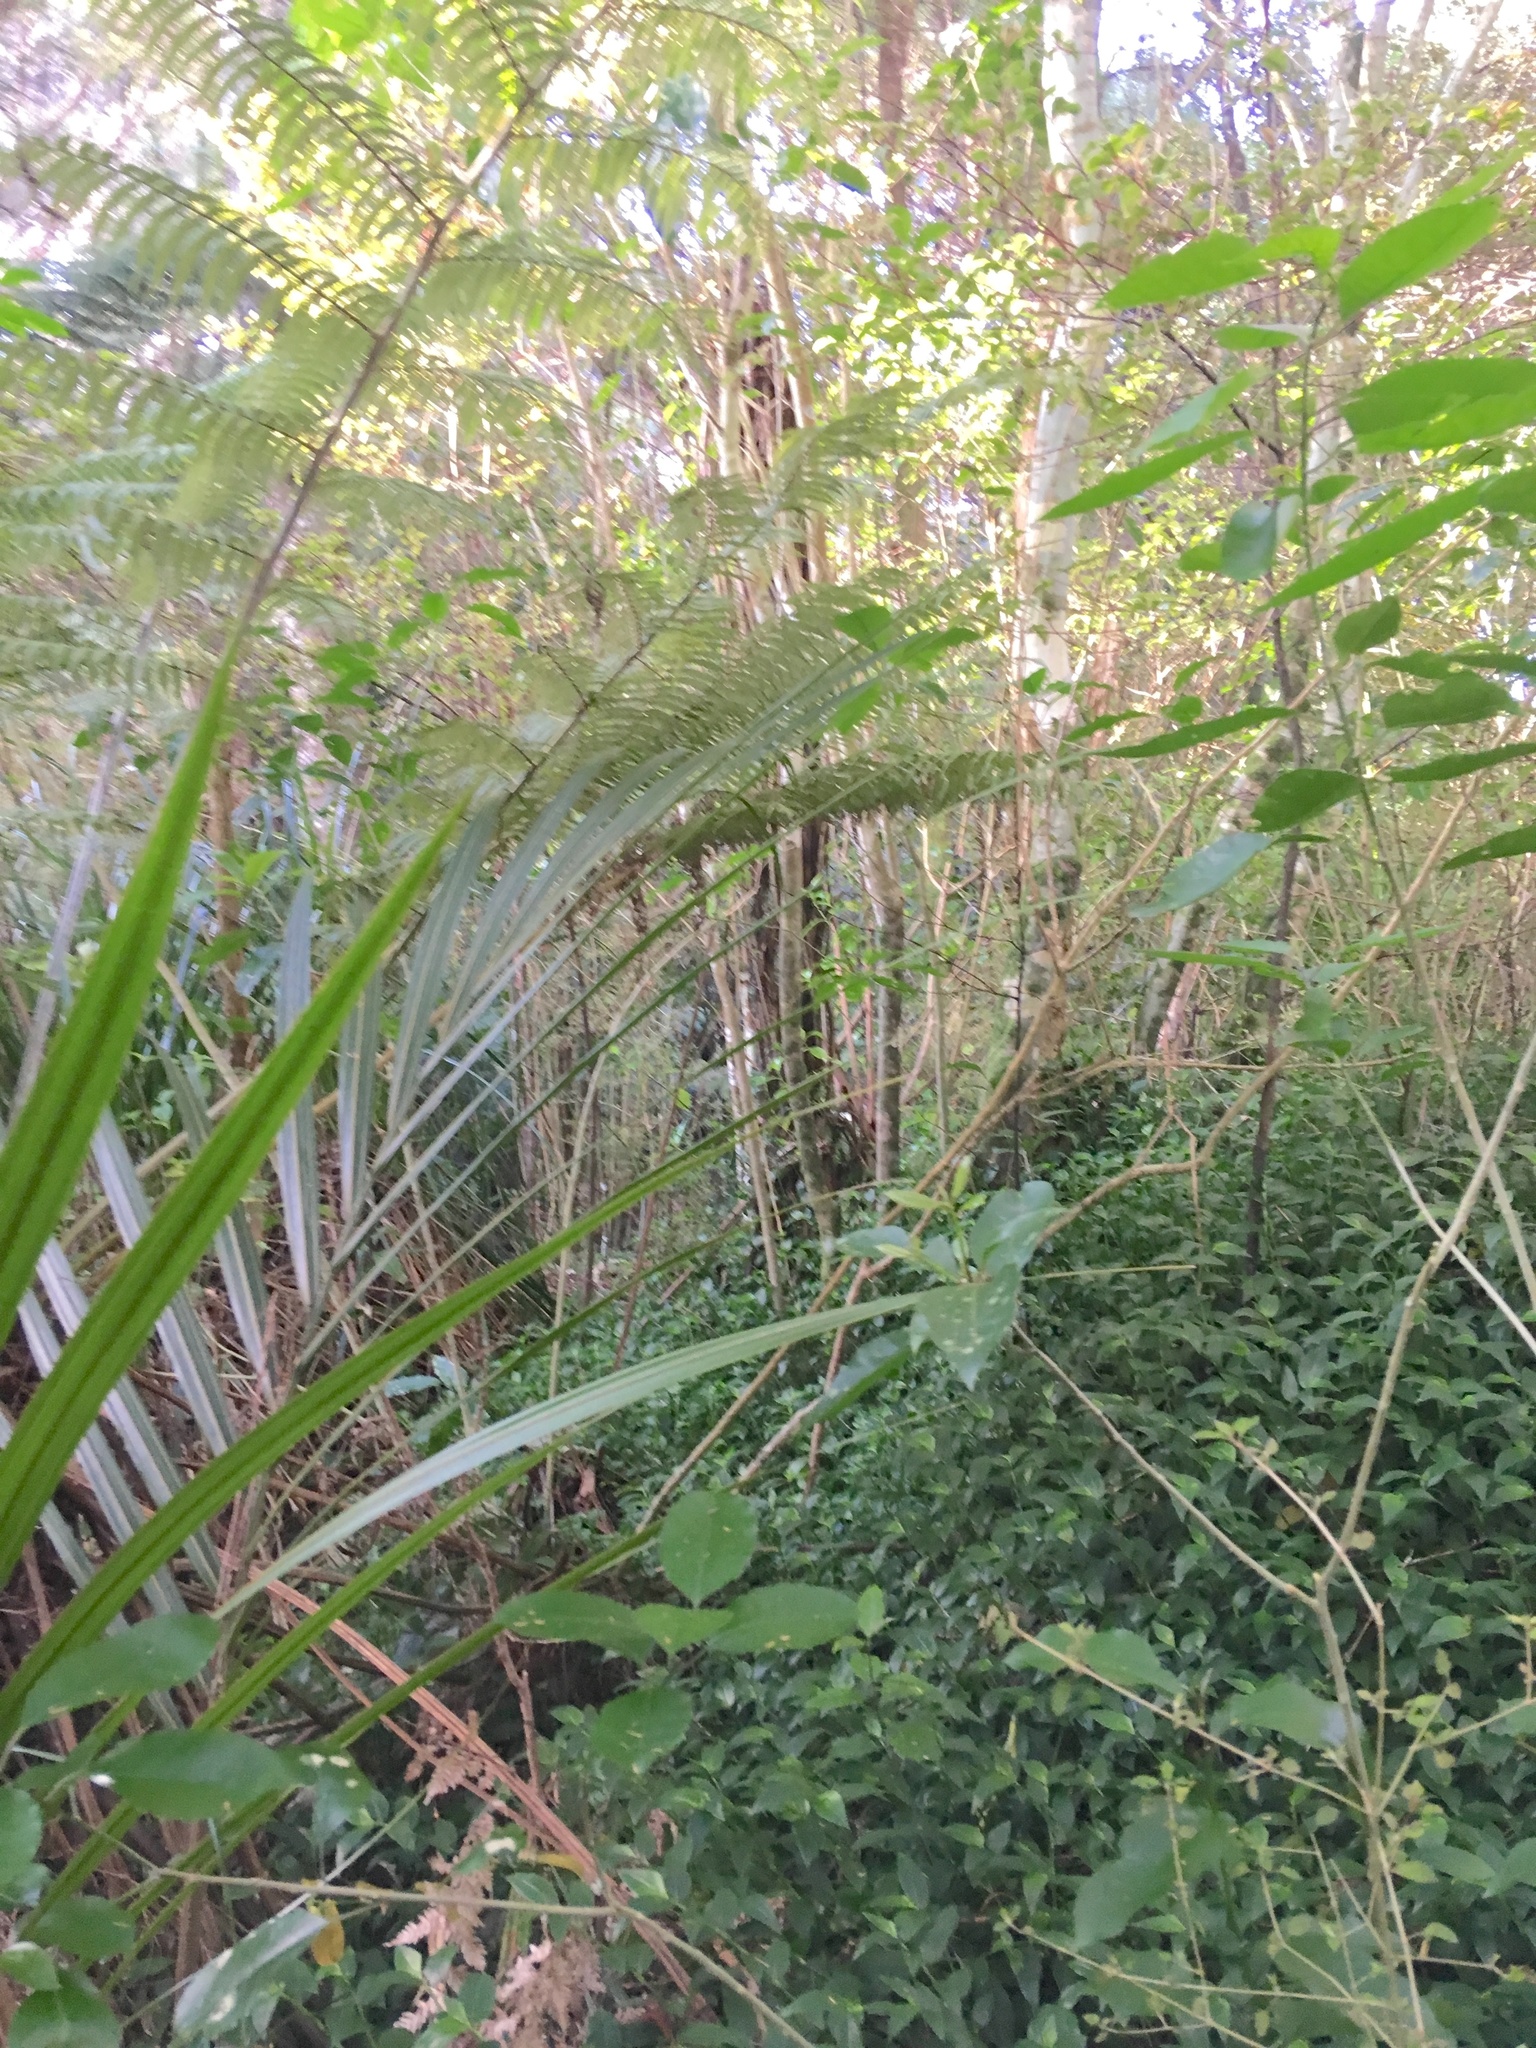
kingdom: Plantae
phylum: Tracheophyta
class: Liliopsida
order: Commelinales
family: Commelinaceae
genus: Tradescantia
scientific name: Tradescantia fluminensis
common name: Wandering-jew
